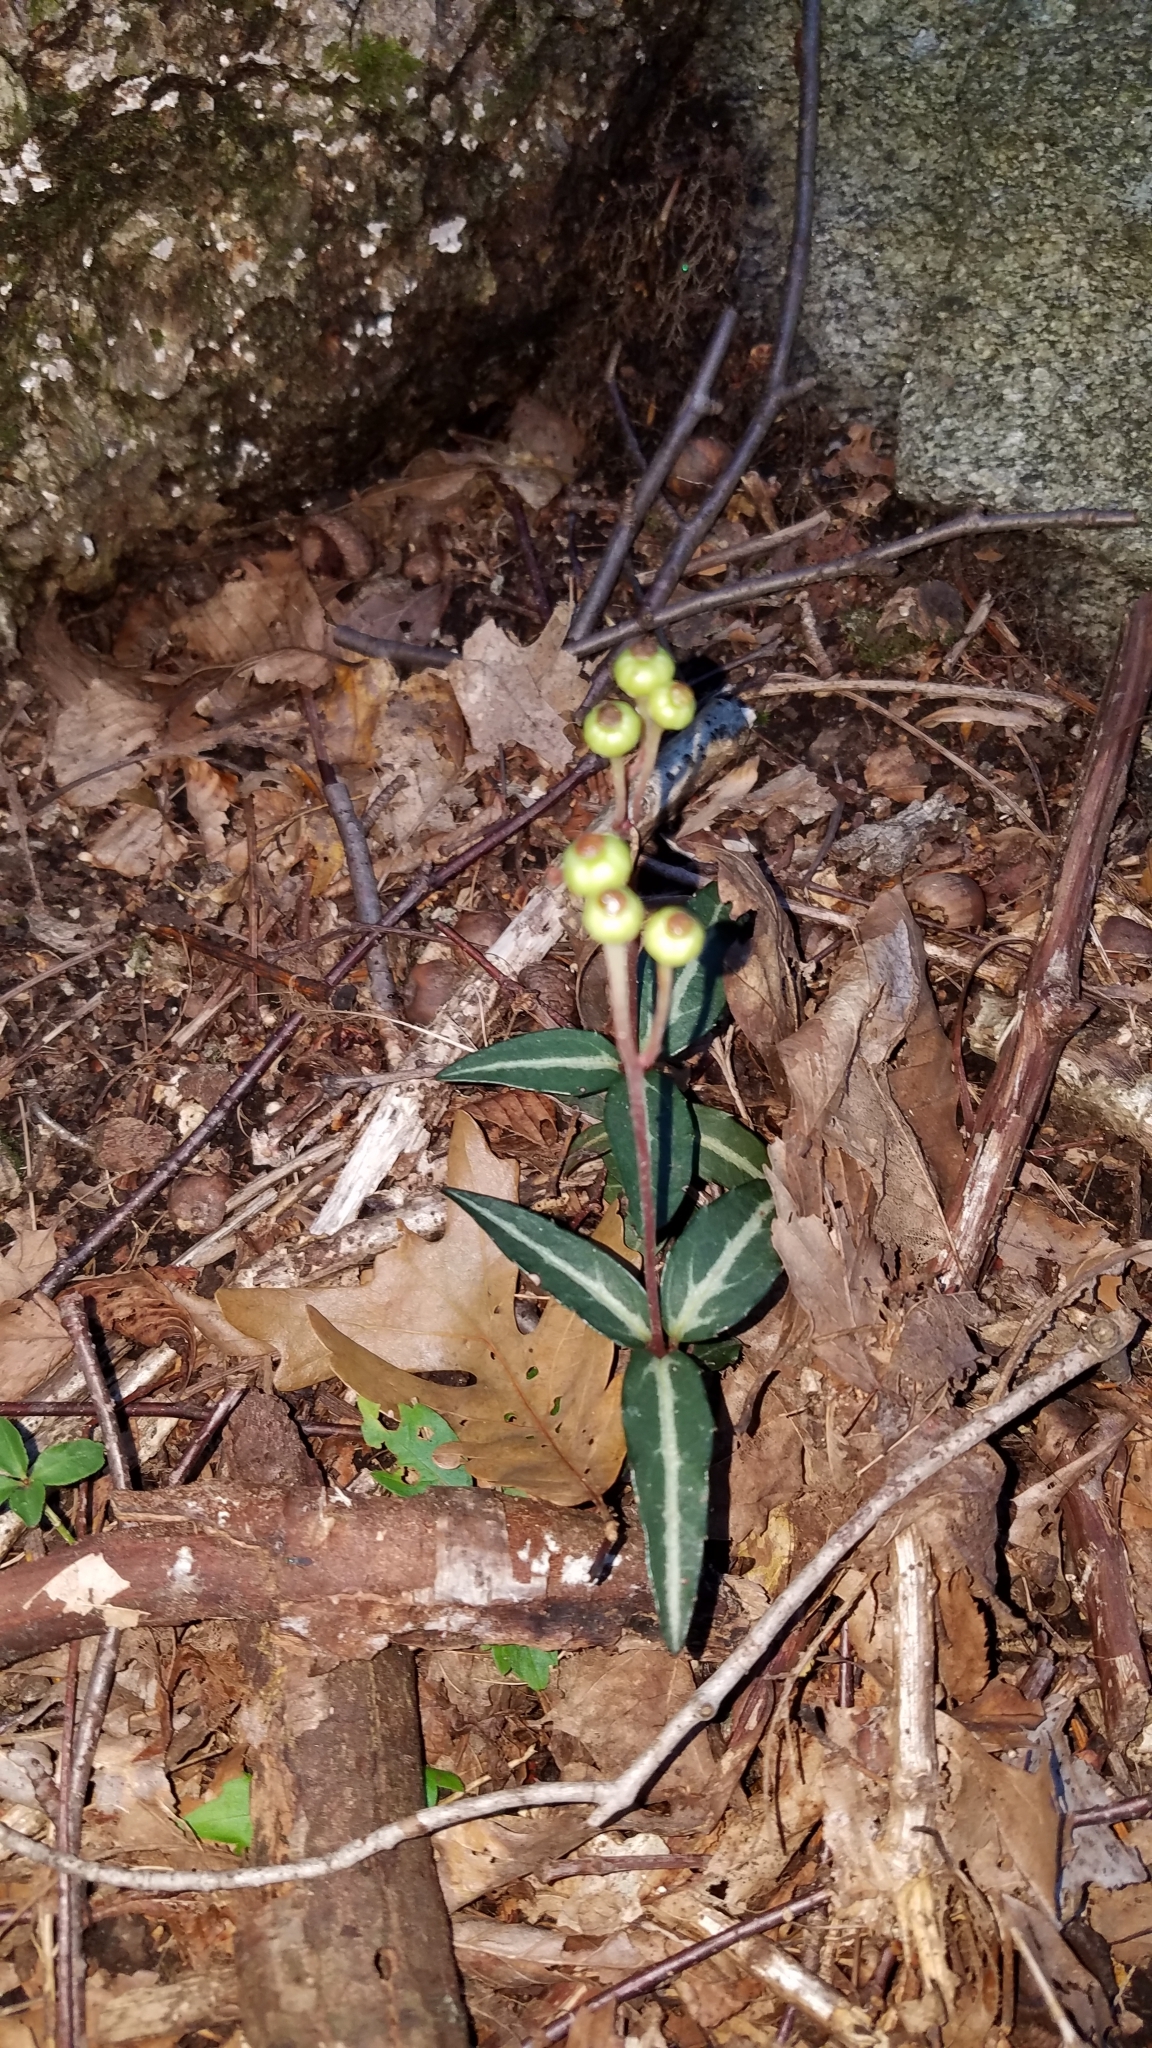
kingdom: Plantae
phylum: Tracheophyta
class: Magnoliopsida
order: Ericales
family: Ericaceae
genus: Chimaphila
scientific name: Chimaphila maculata
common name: Spotted pipsissewa
